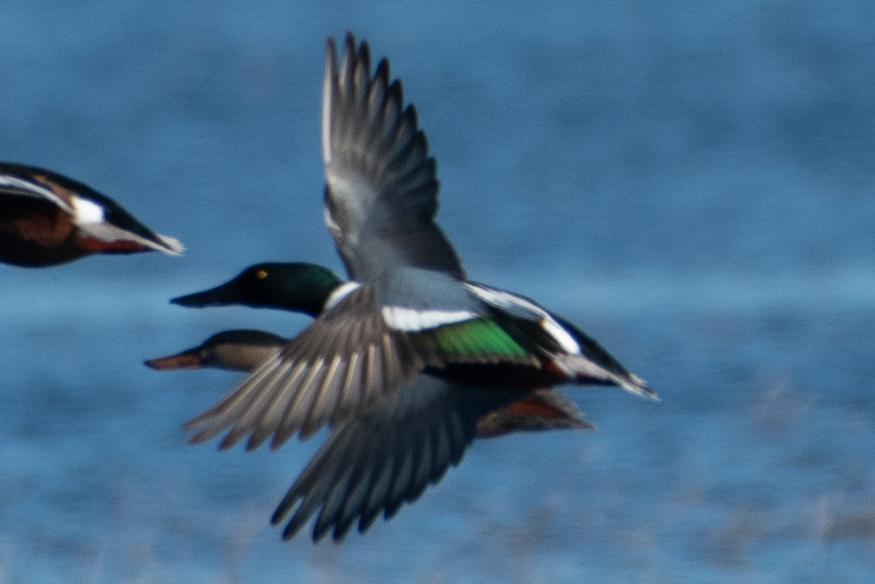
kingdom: Animalia
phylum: Chordata
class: Aves
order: Anseriformes
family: Anatidae
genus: Spatula
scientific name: Spatula clypeata
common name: Northern shoveler
